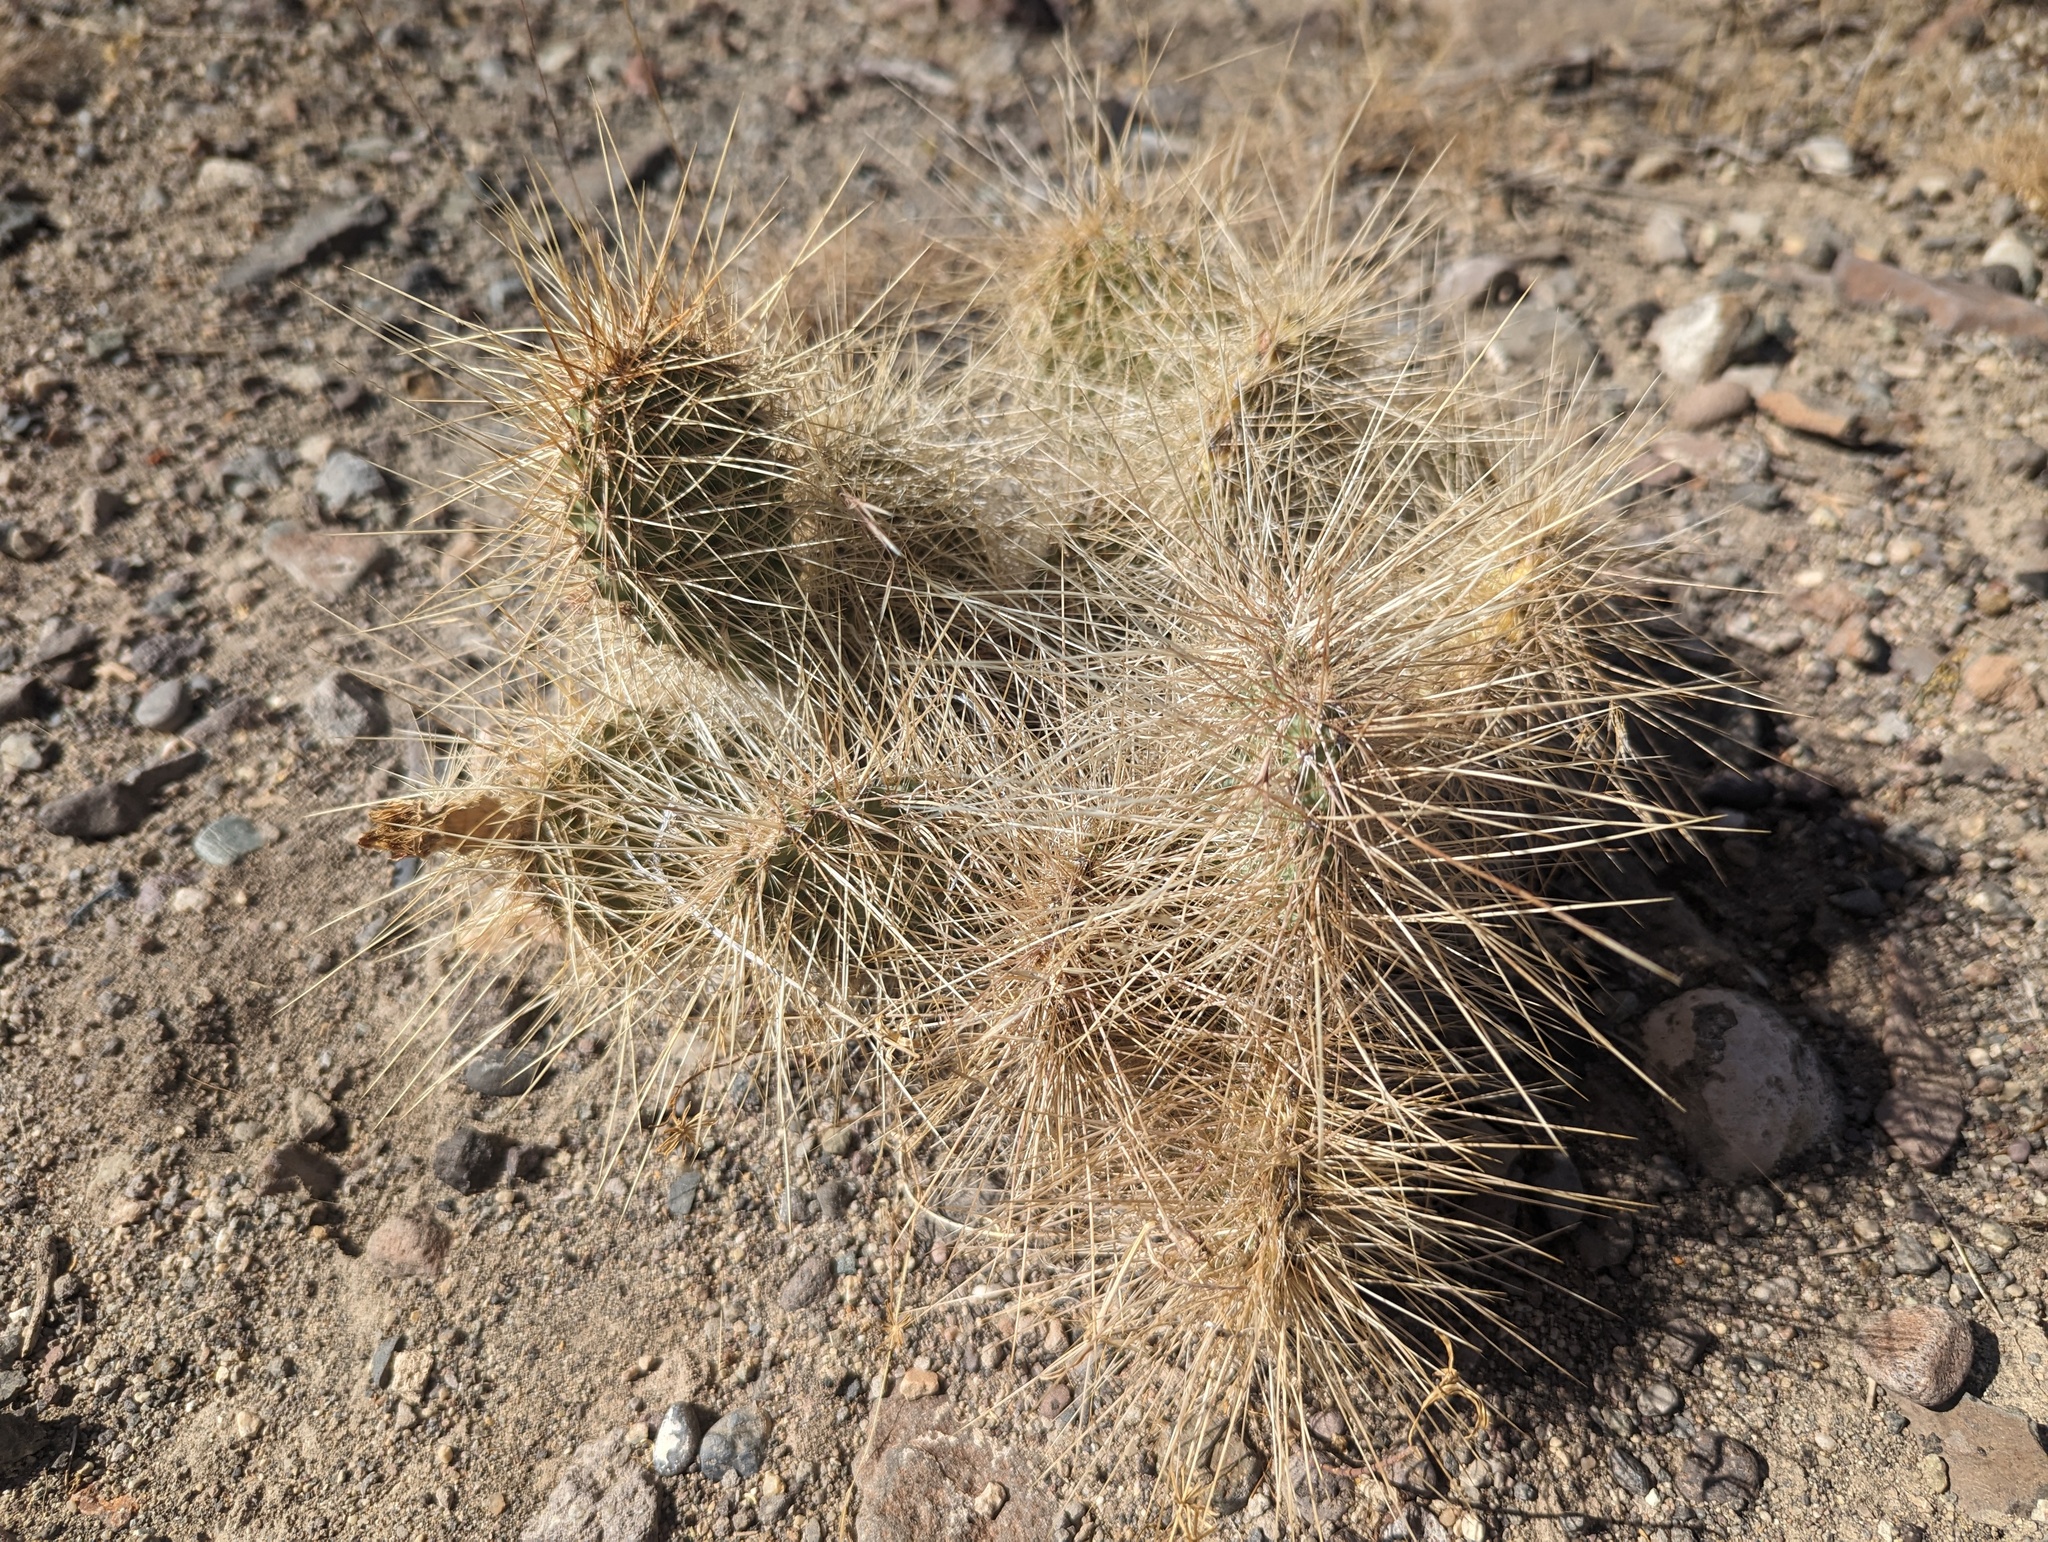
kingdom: Plantae
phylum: Tracheophyta
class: Magnoliopsida
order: Caryophyllales
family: Cactaceae
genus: Opuntia
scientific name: Opuntia polyacantha
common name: Plains prickly-pear
